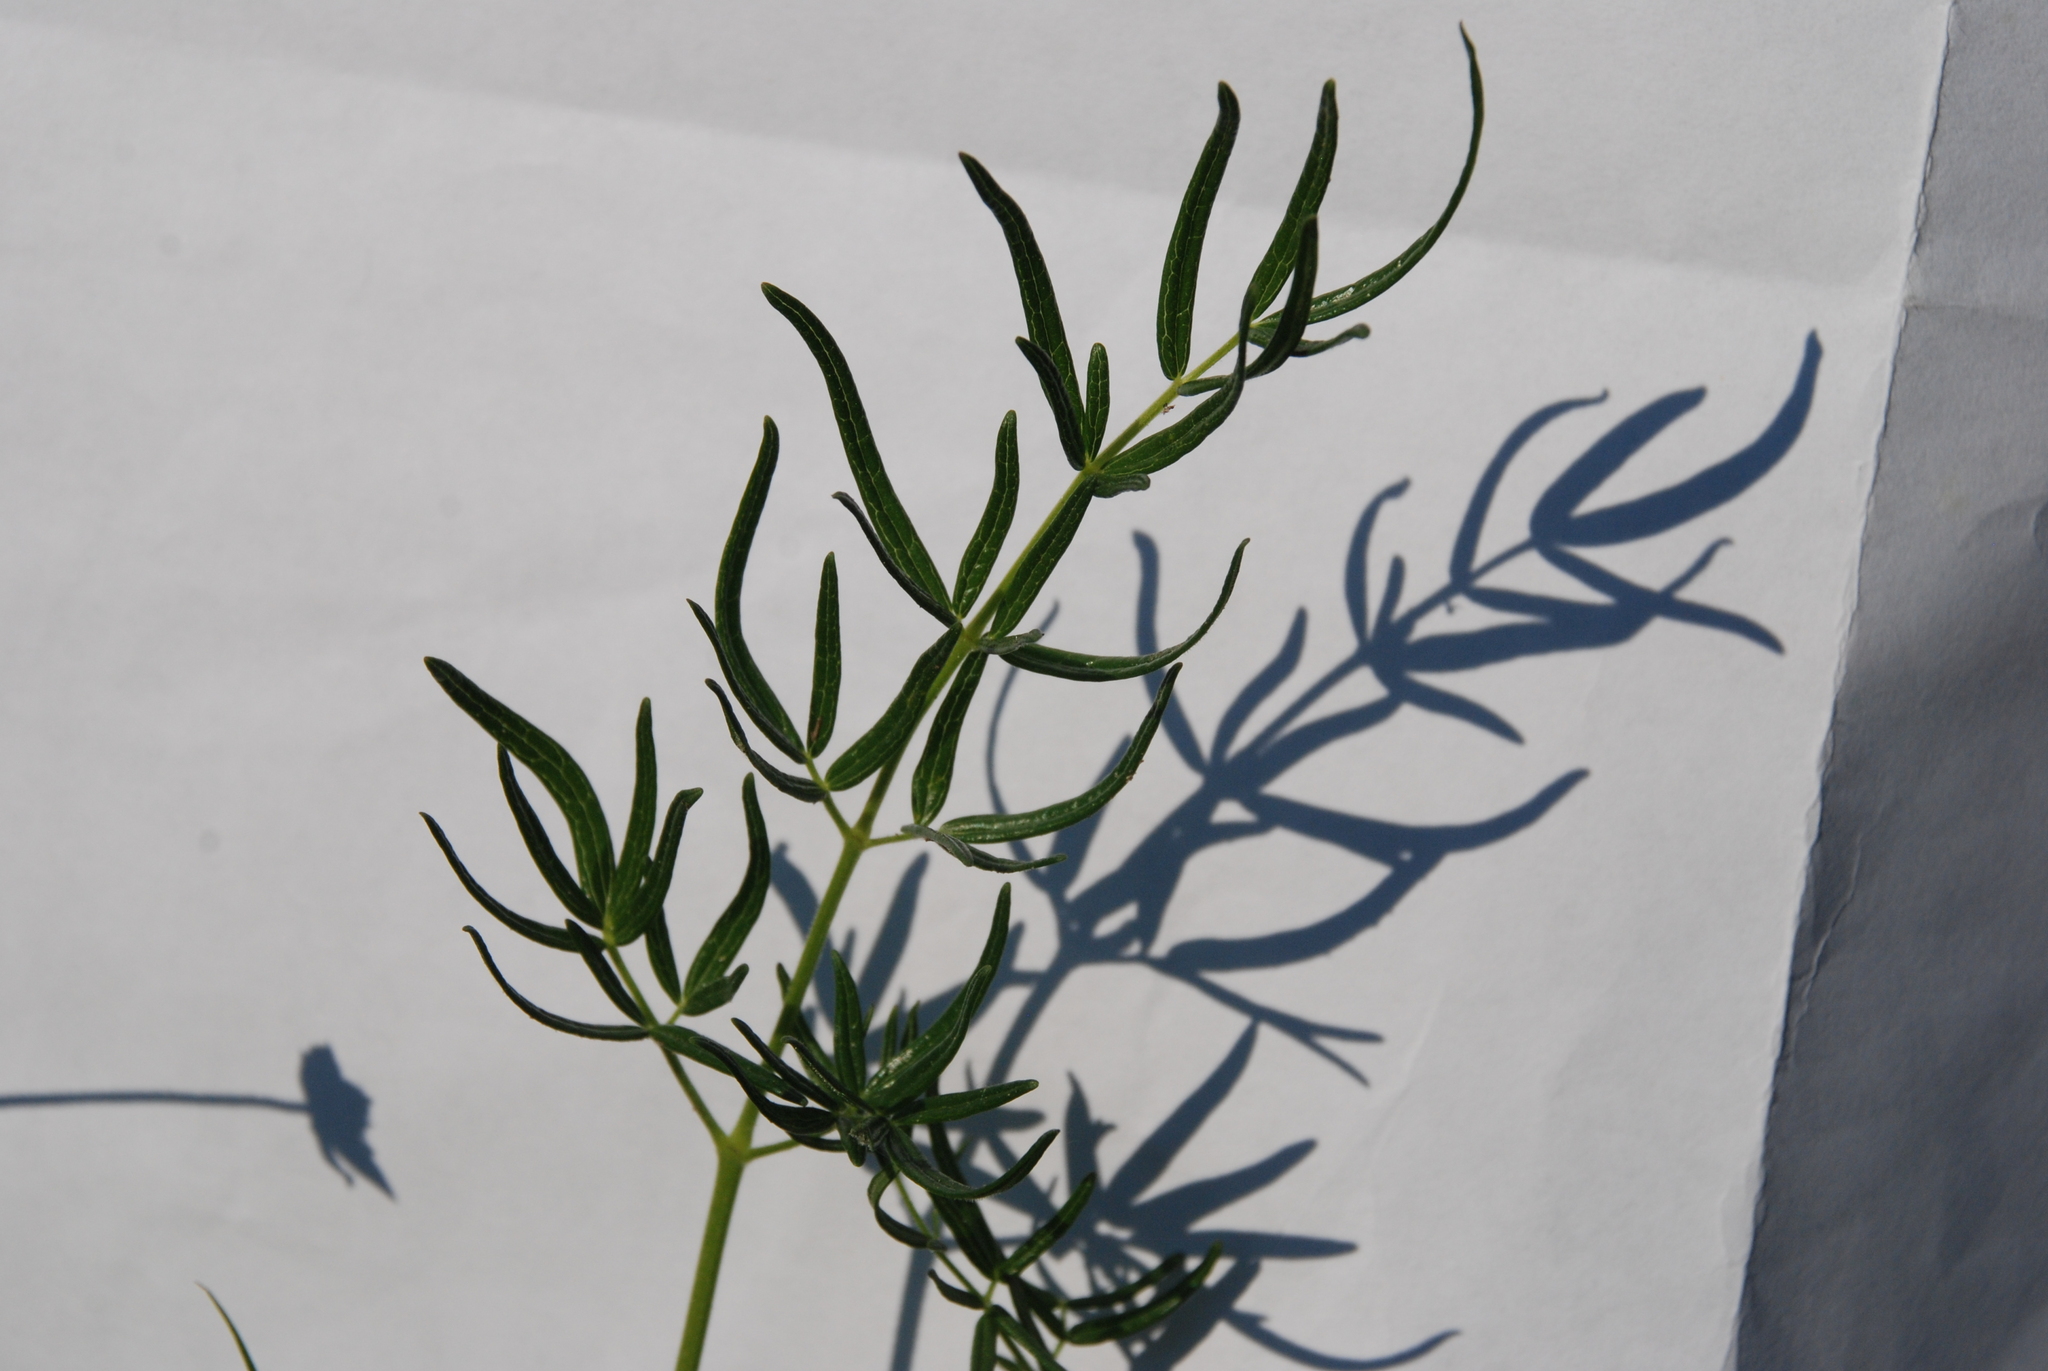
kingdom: Plantae
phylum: Tracheophyta
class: Magnoliopsida
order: Ranunculales
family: Ranunculaceae
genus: Thalictrum
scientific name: Thalictrum lucidum
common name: Shining meadow-rue
